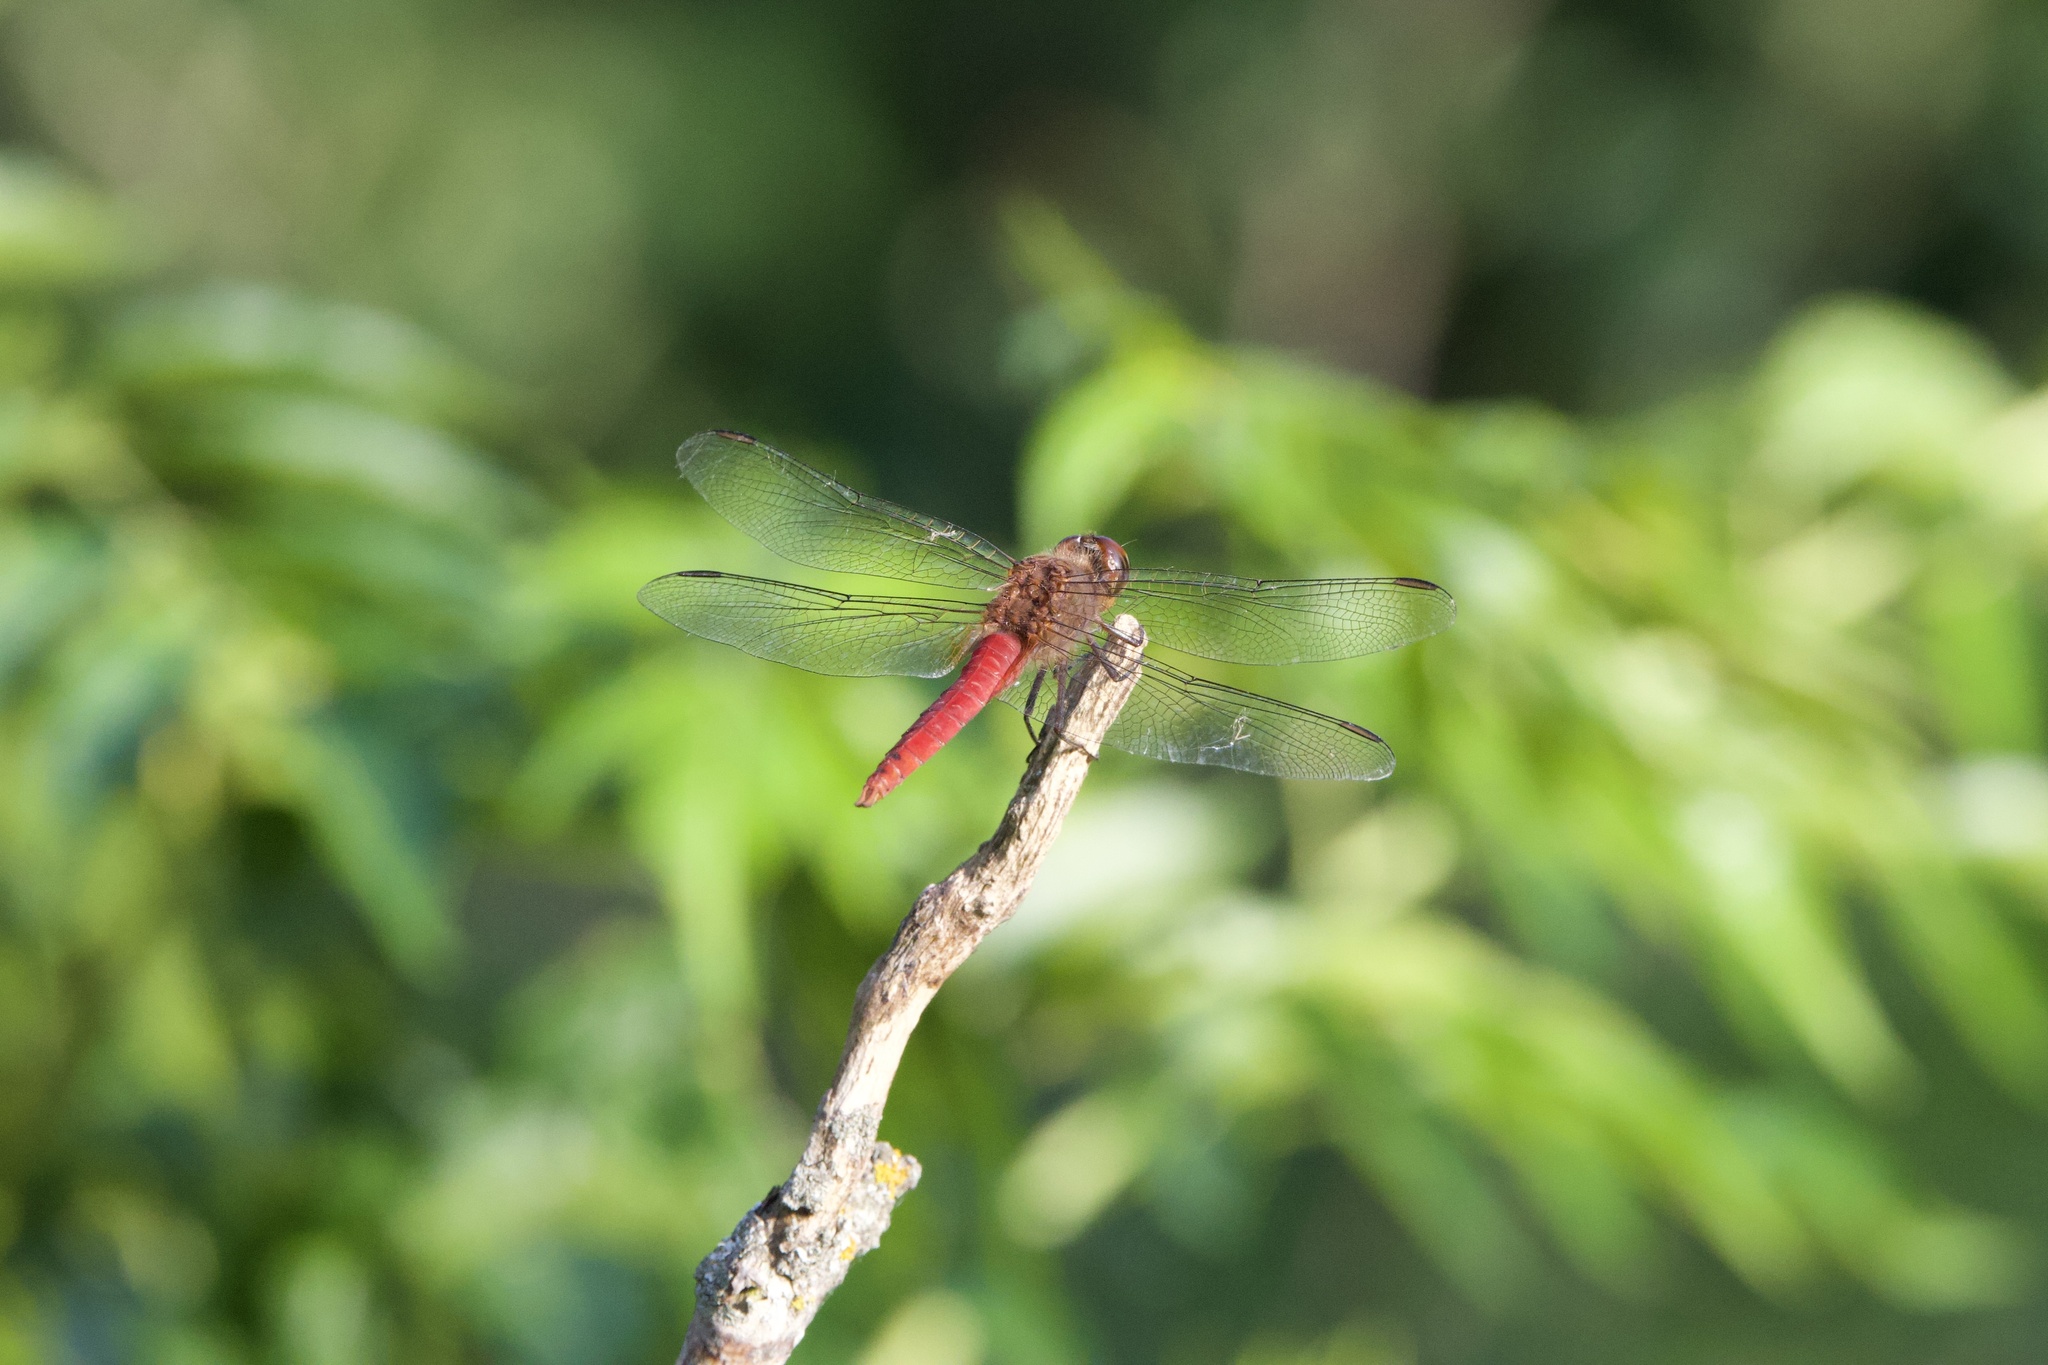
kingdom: Animalia
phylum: Arthropoda
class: Insecta
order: Odonata
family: Libellulidae
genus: Brachymesia
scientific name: Brachymesia furcata
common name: Red-taled pennant
